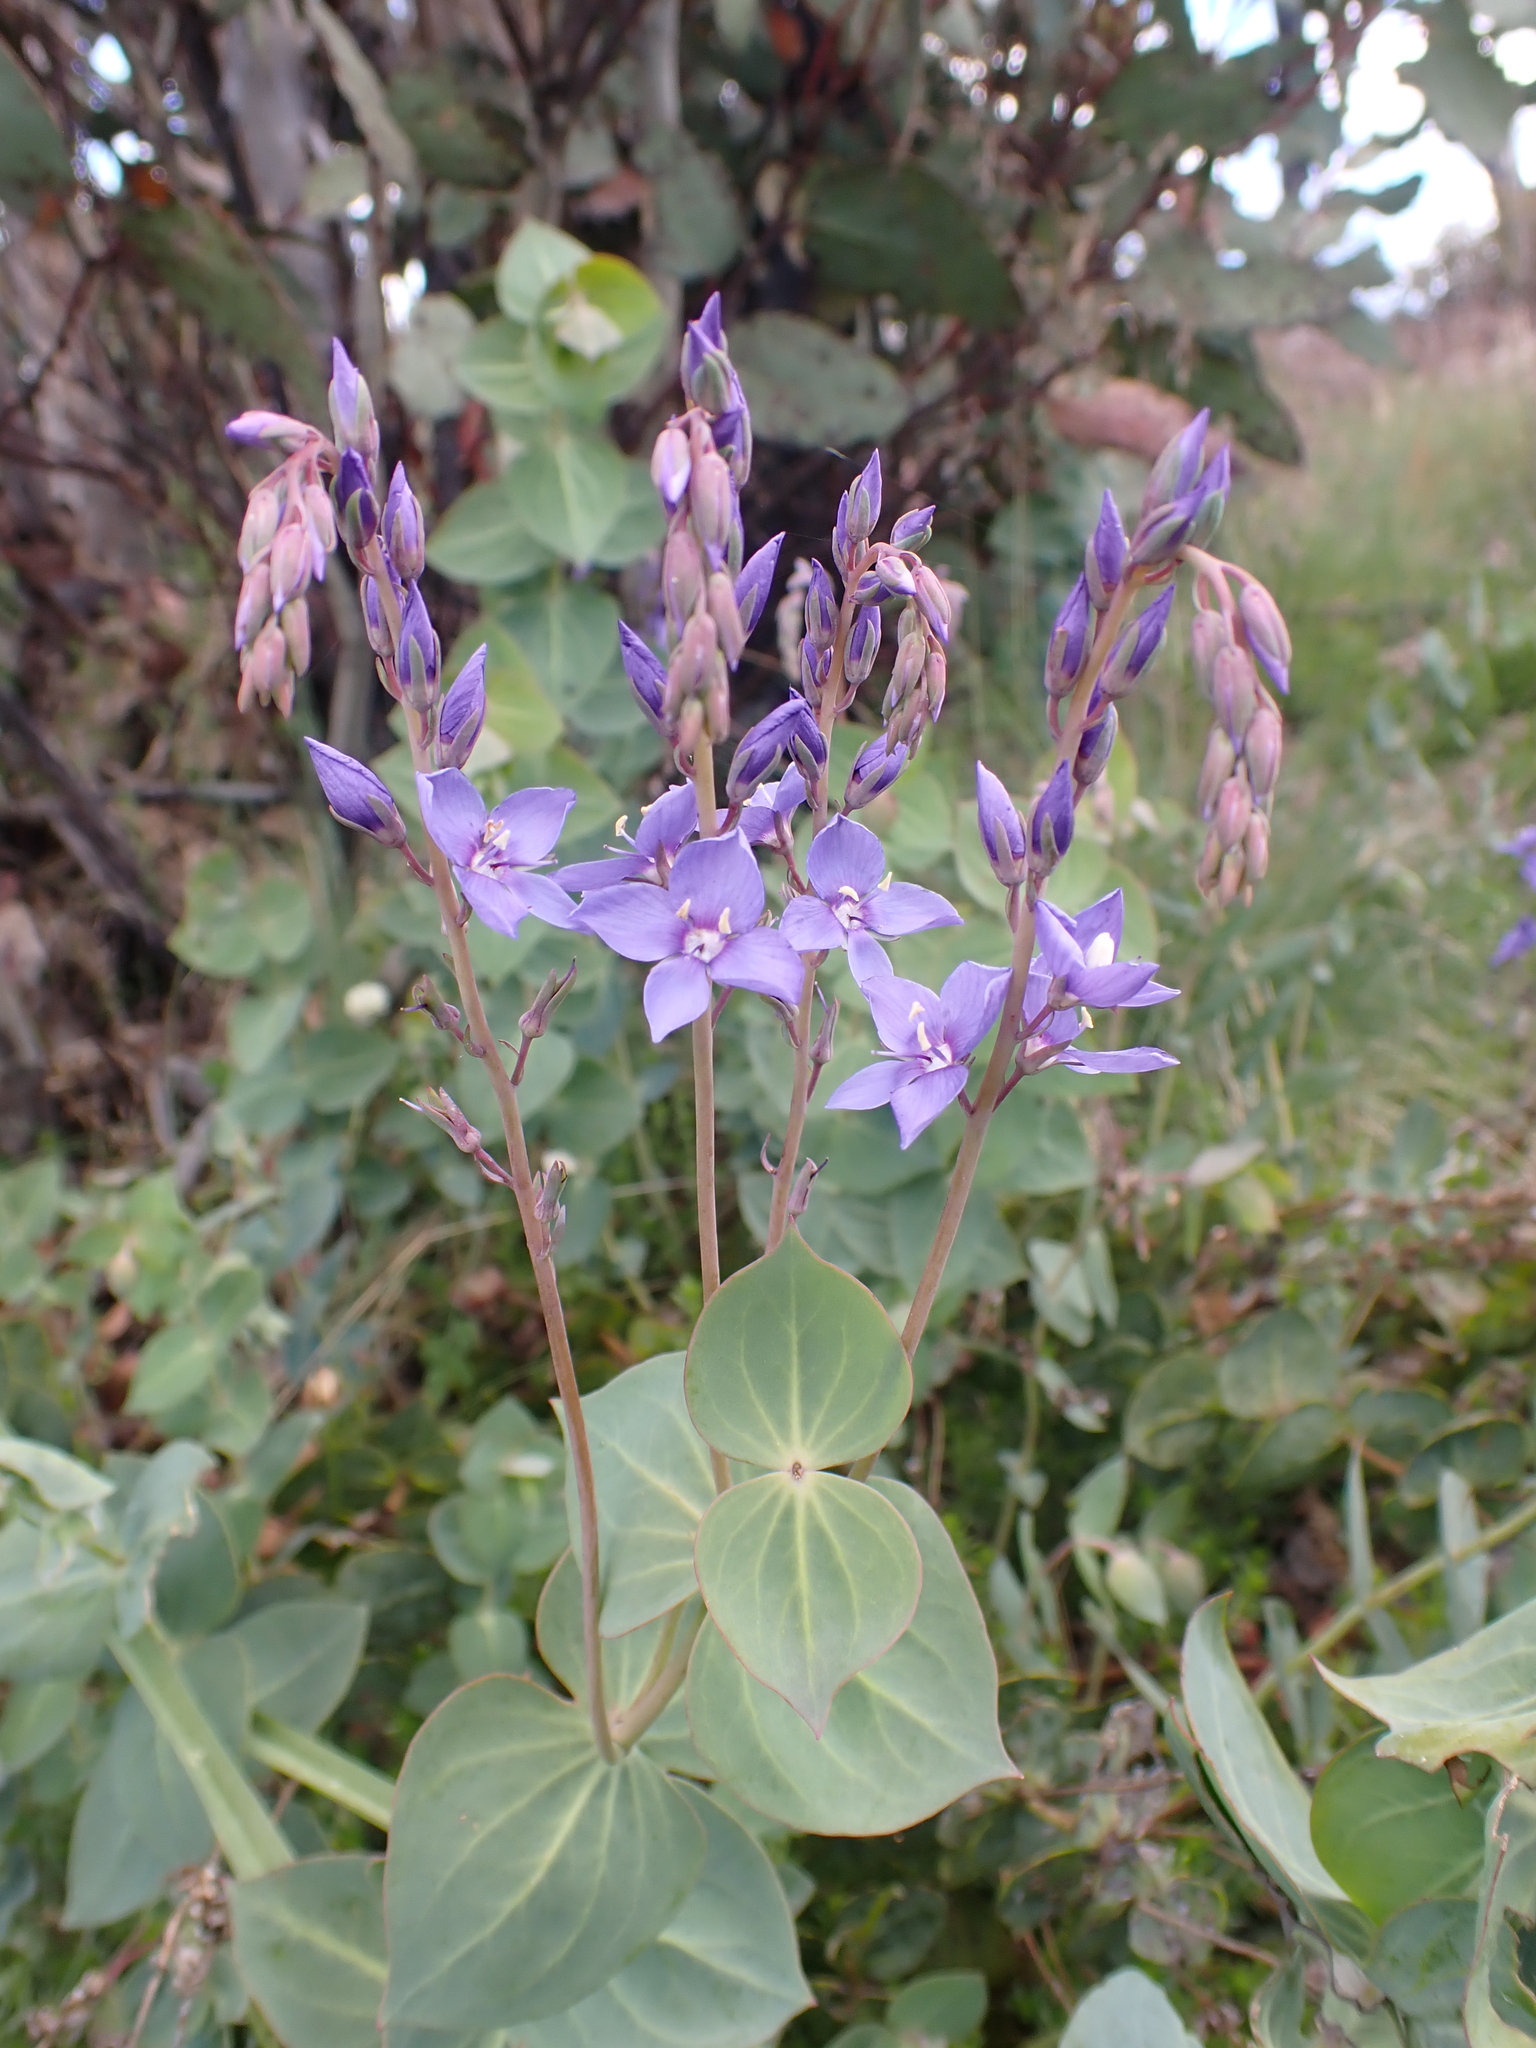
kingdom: Plantae
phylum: Tracheophyta
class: Magnoliopsida
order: Lamiales
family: Plantaginaceae
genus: Veronica
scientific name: Veronica perfoliata
